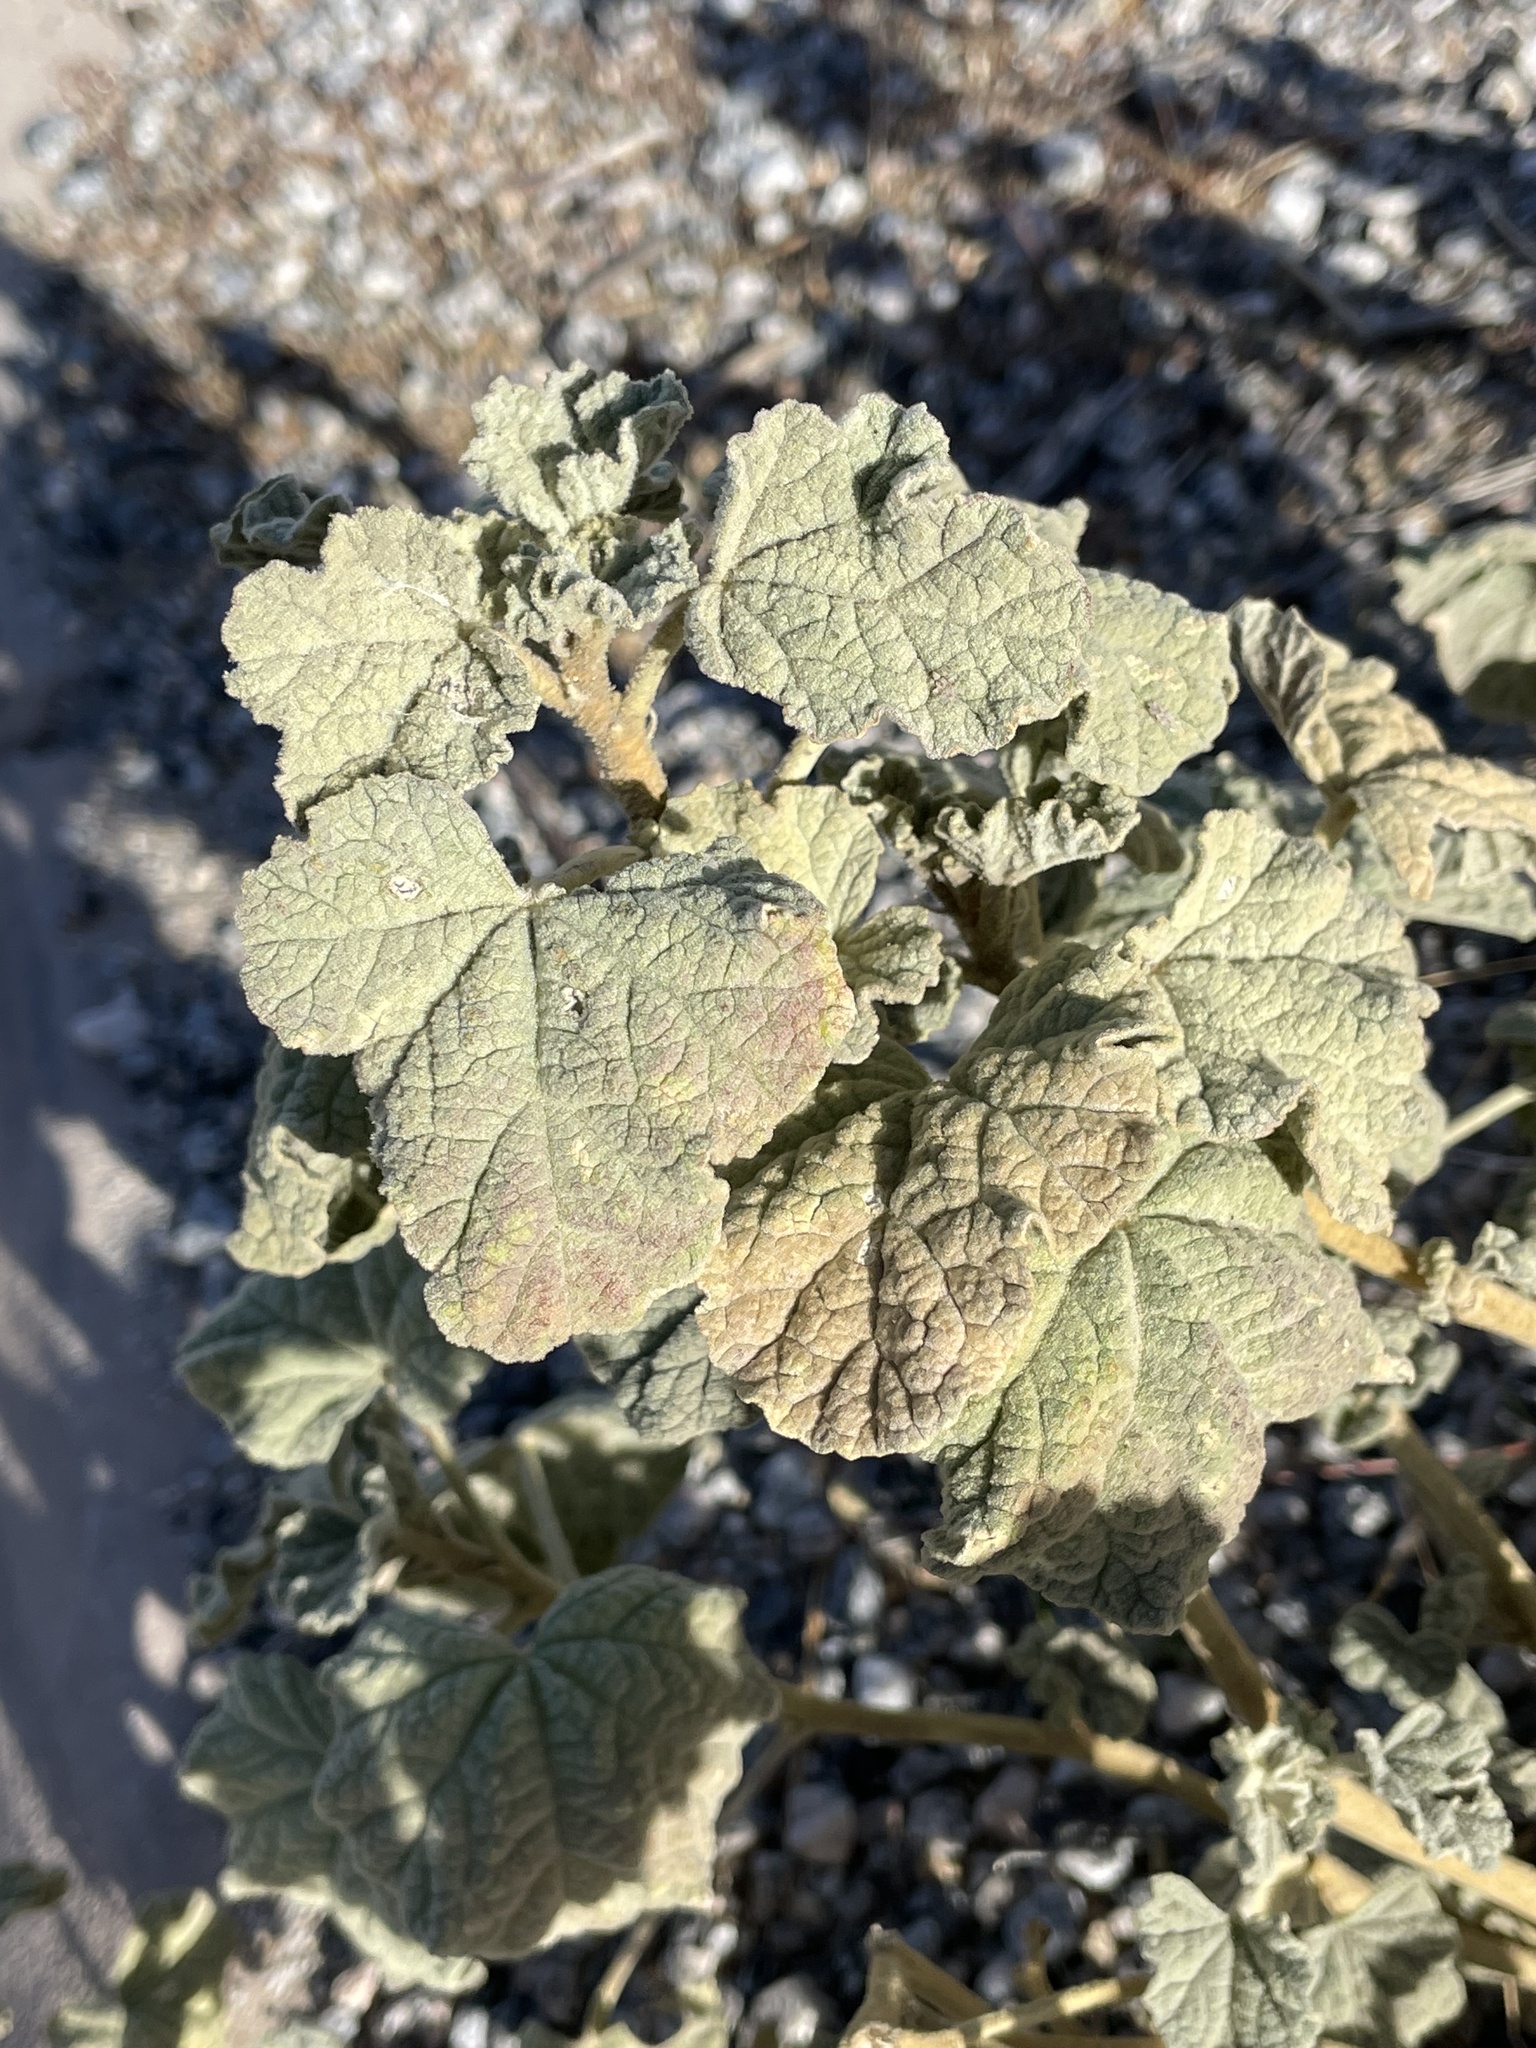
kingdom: Plantae
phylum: Tracheophyta
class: Magnoliopsida
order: Malvales
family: Malvaceae
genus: Sphaeralcea
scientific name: Sphaeralcea ambigua
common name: Apricot globe-mallow
